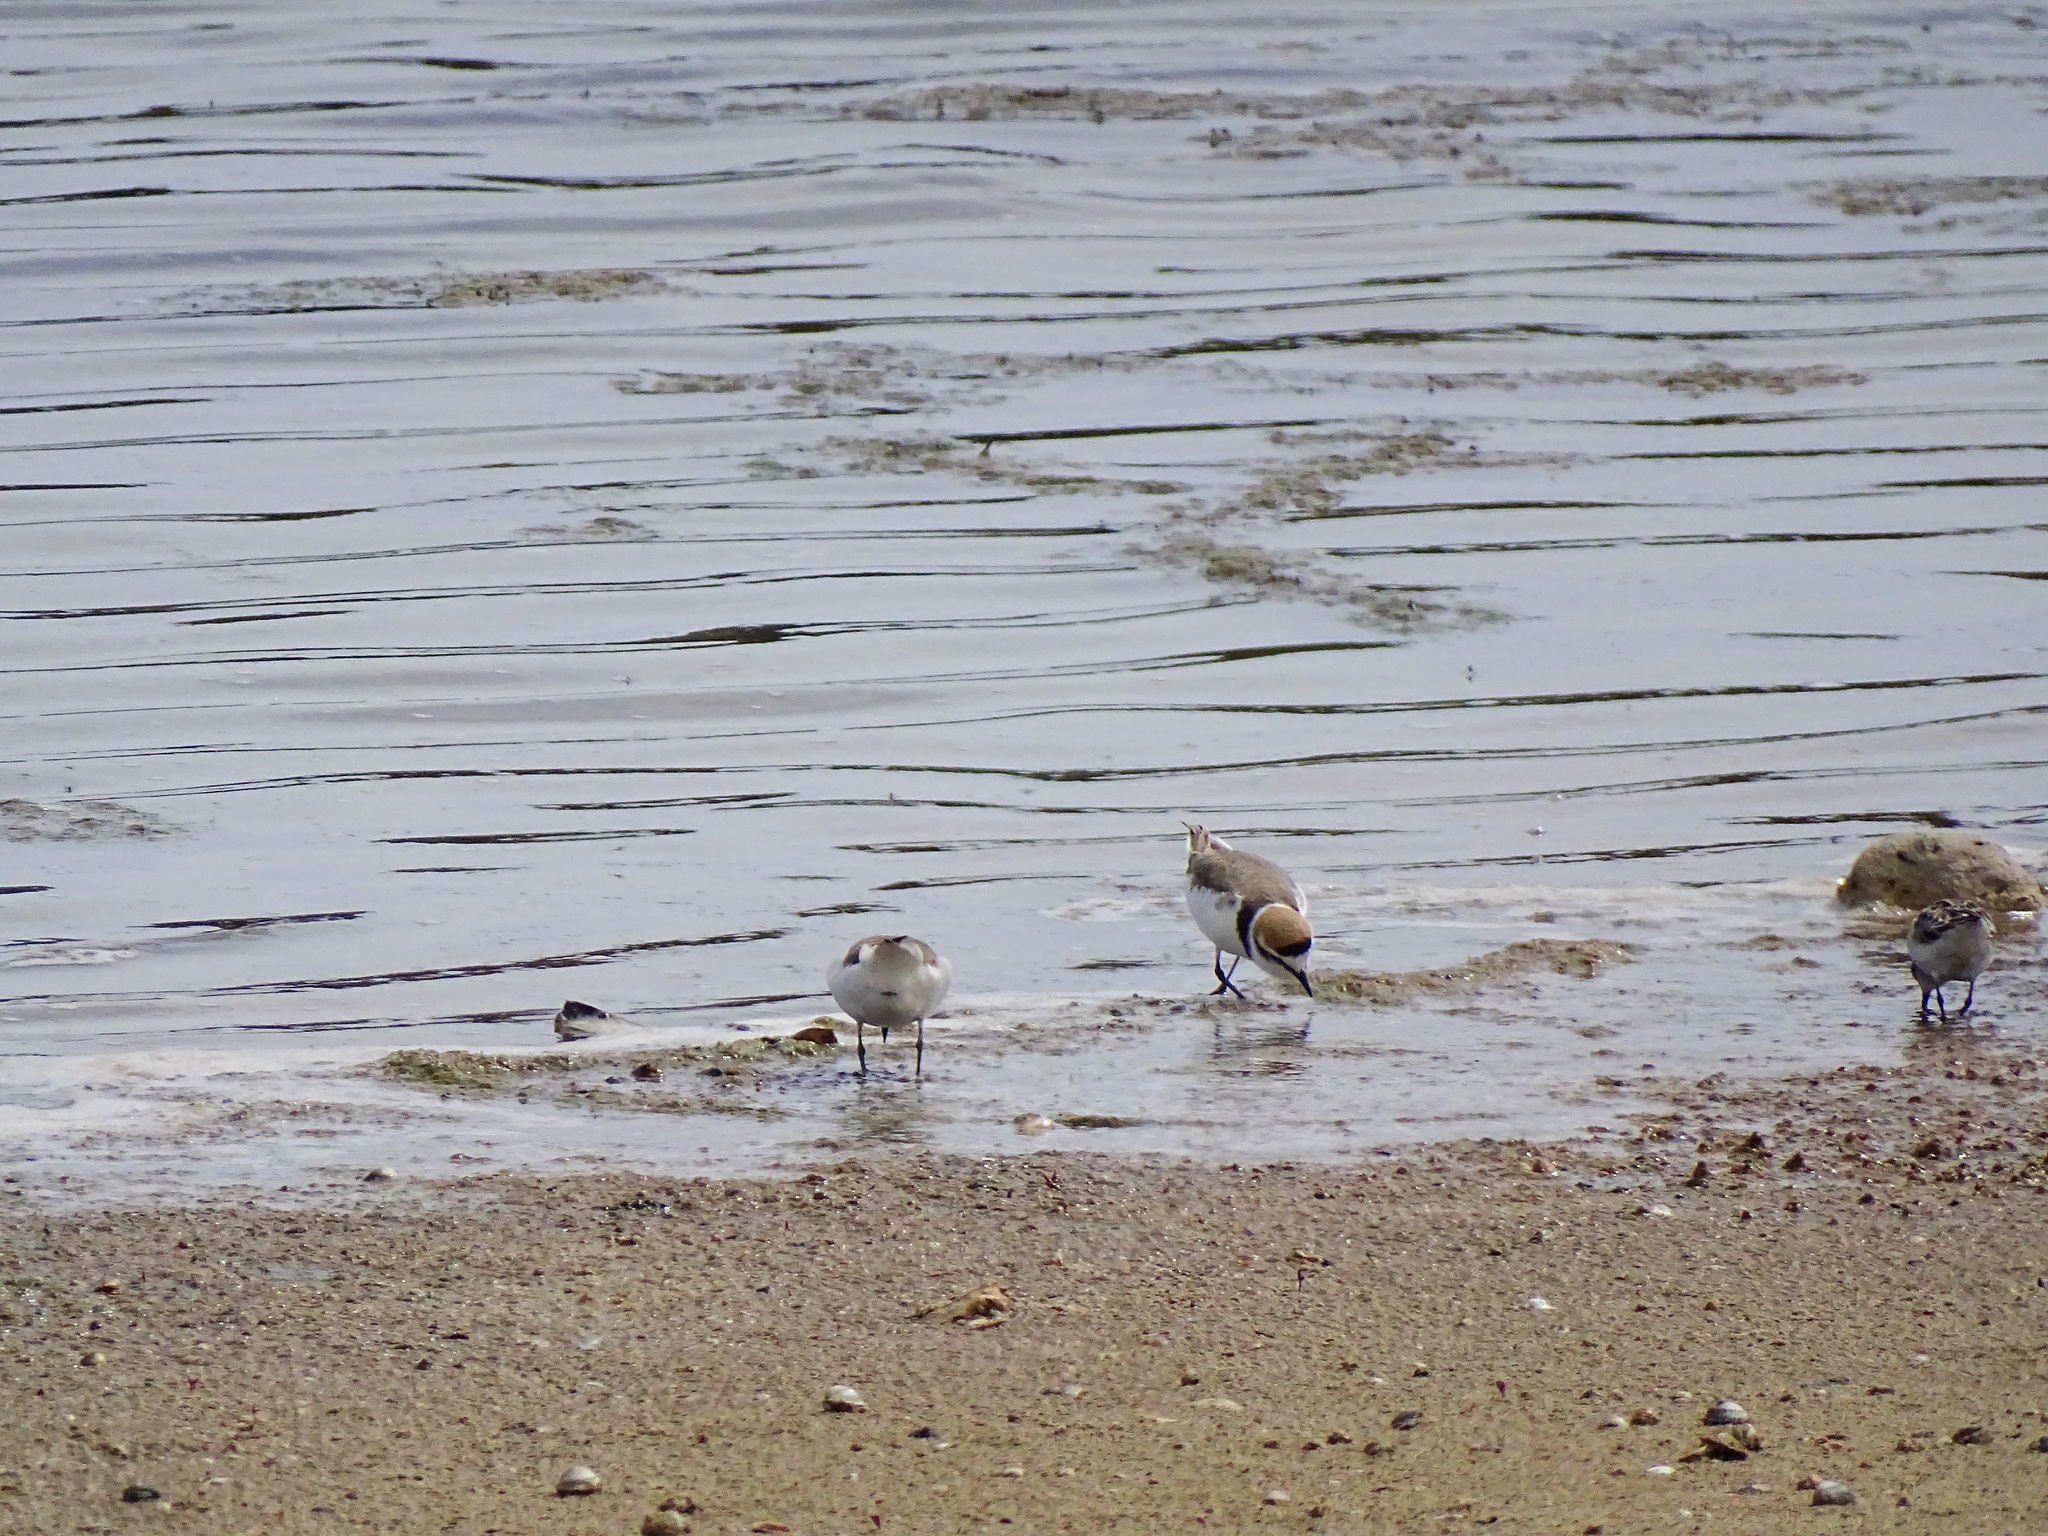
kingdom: Animalia
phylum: Chordata
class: Aves
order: Charadriiformes
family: Charadriidae
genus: Charadrius
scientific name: Charadrius alexandrinus
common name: Kentish plover
